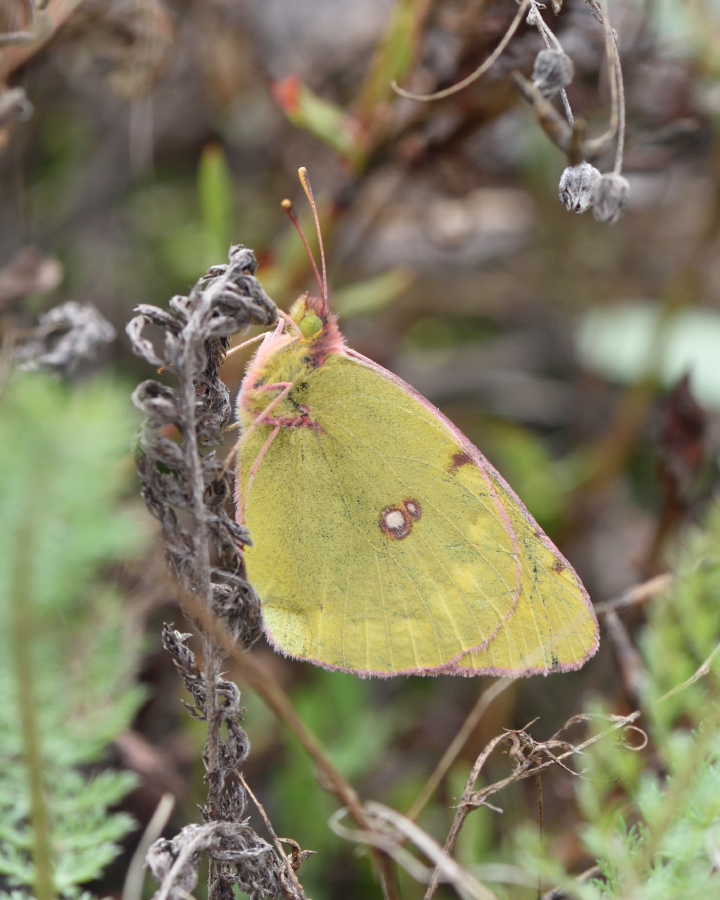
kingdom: Animalia
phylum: Arthropoda
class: Insecta
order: Lepidoptera
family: Pieridae
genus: Colias
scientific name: Colias myrmidone
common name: Danube clouded yellow
